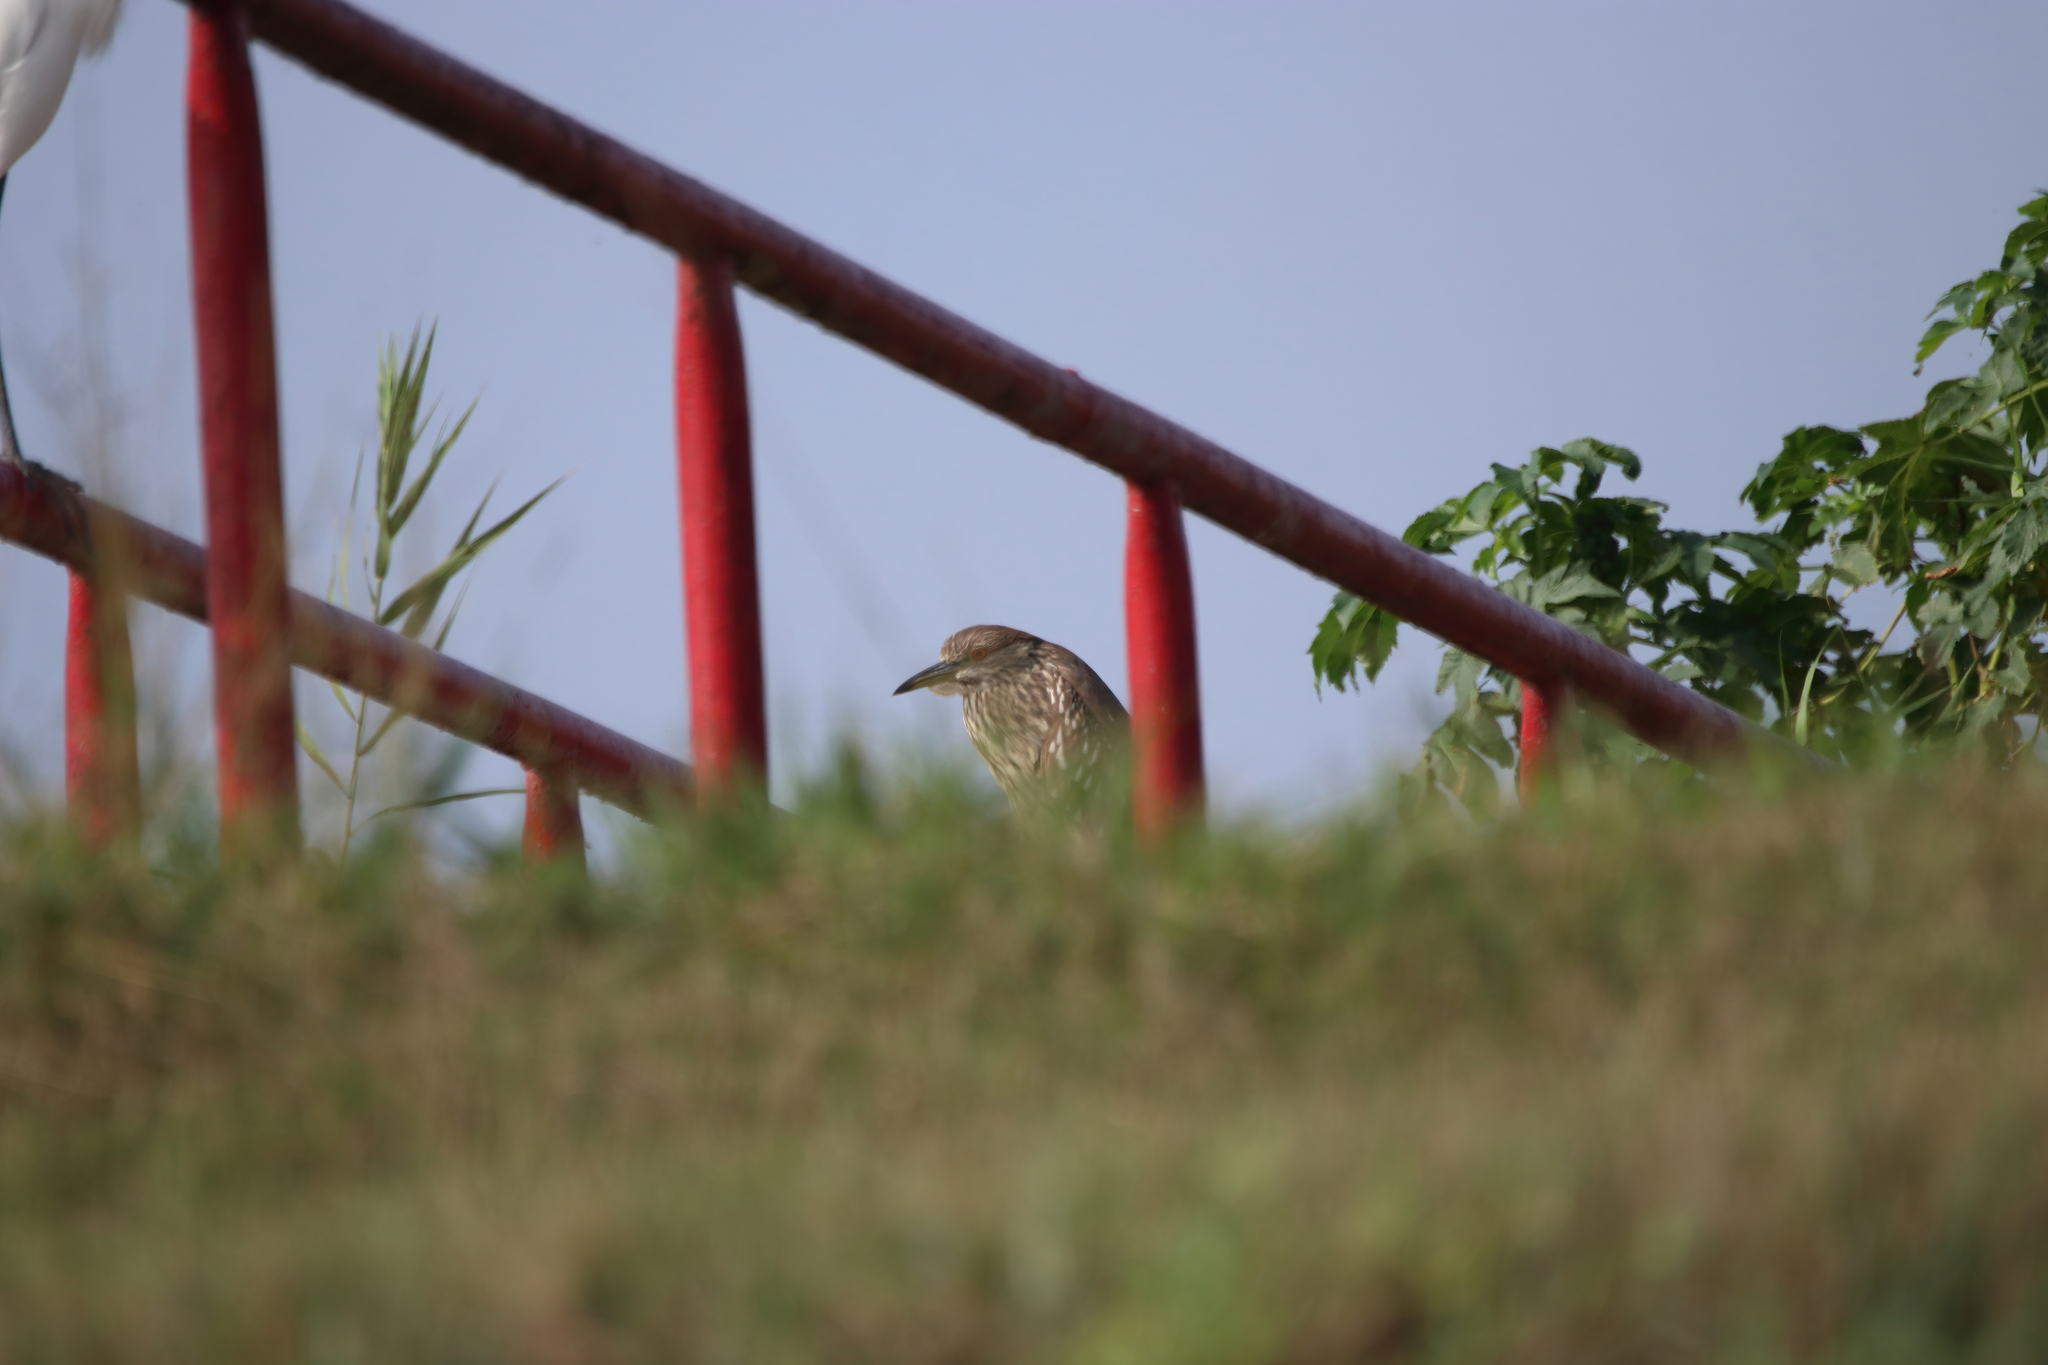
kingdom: Animalia
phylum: Chordata
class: Aves
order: Pelecaniformes
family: Ardeidae
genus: Nycticorax
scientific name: Nycticorax nycticorax
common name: Black-crowned night heron
